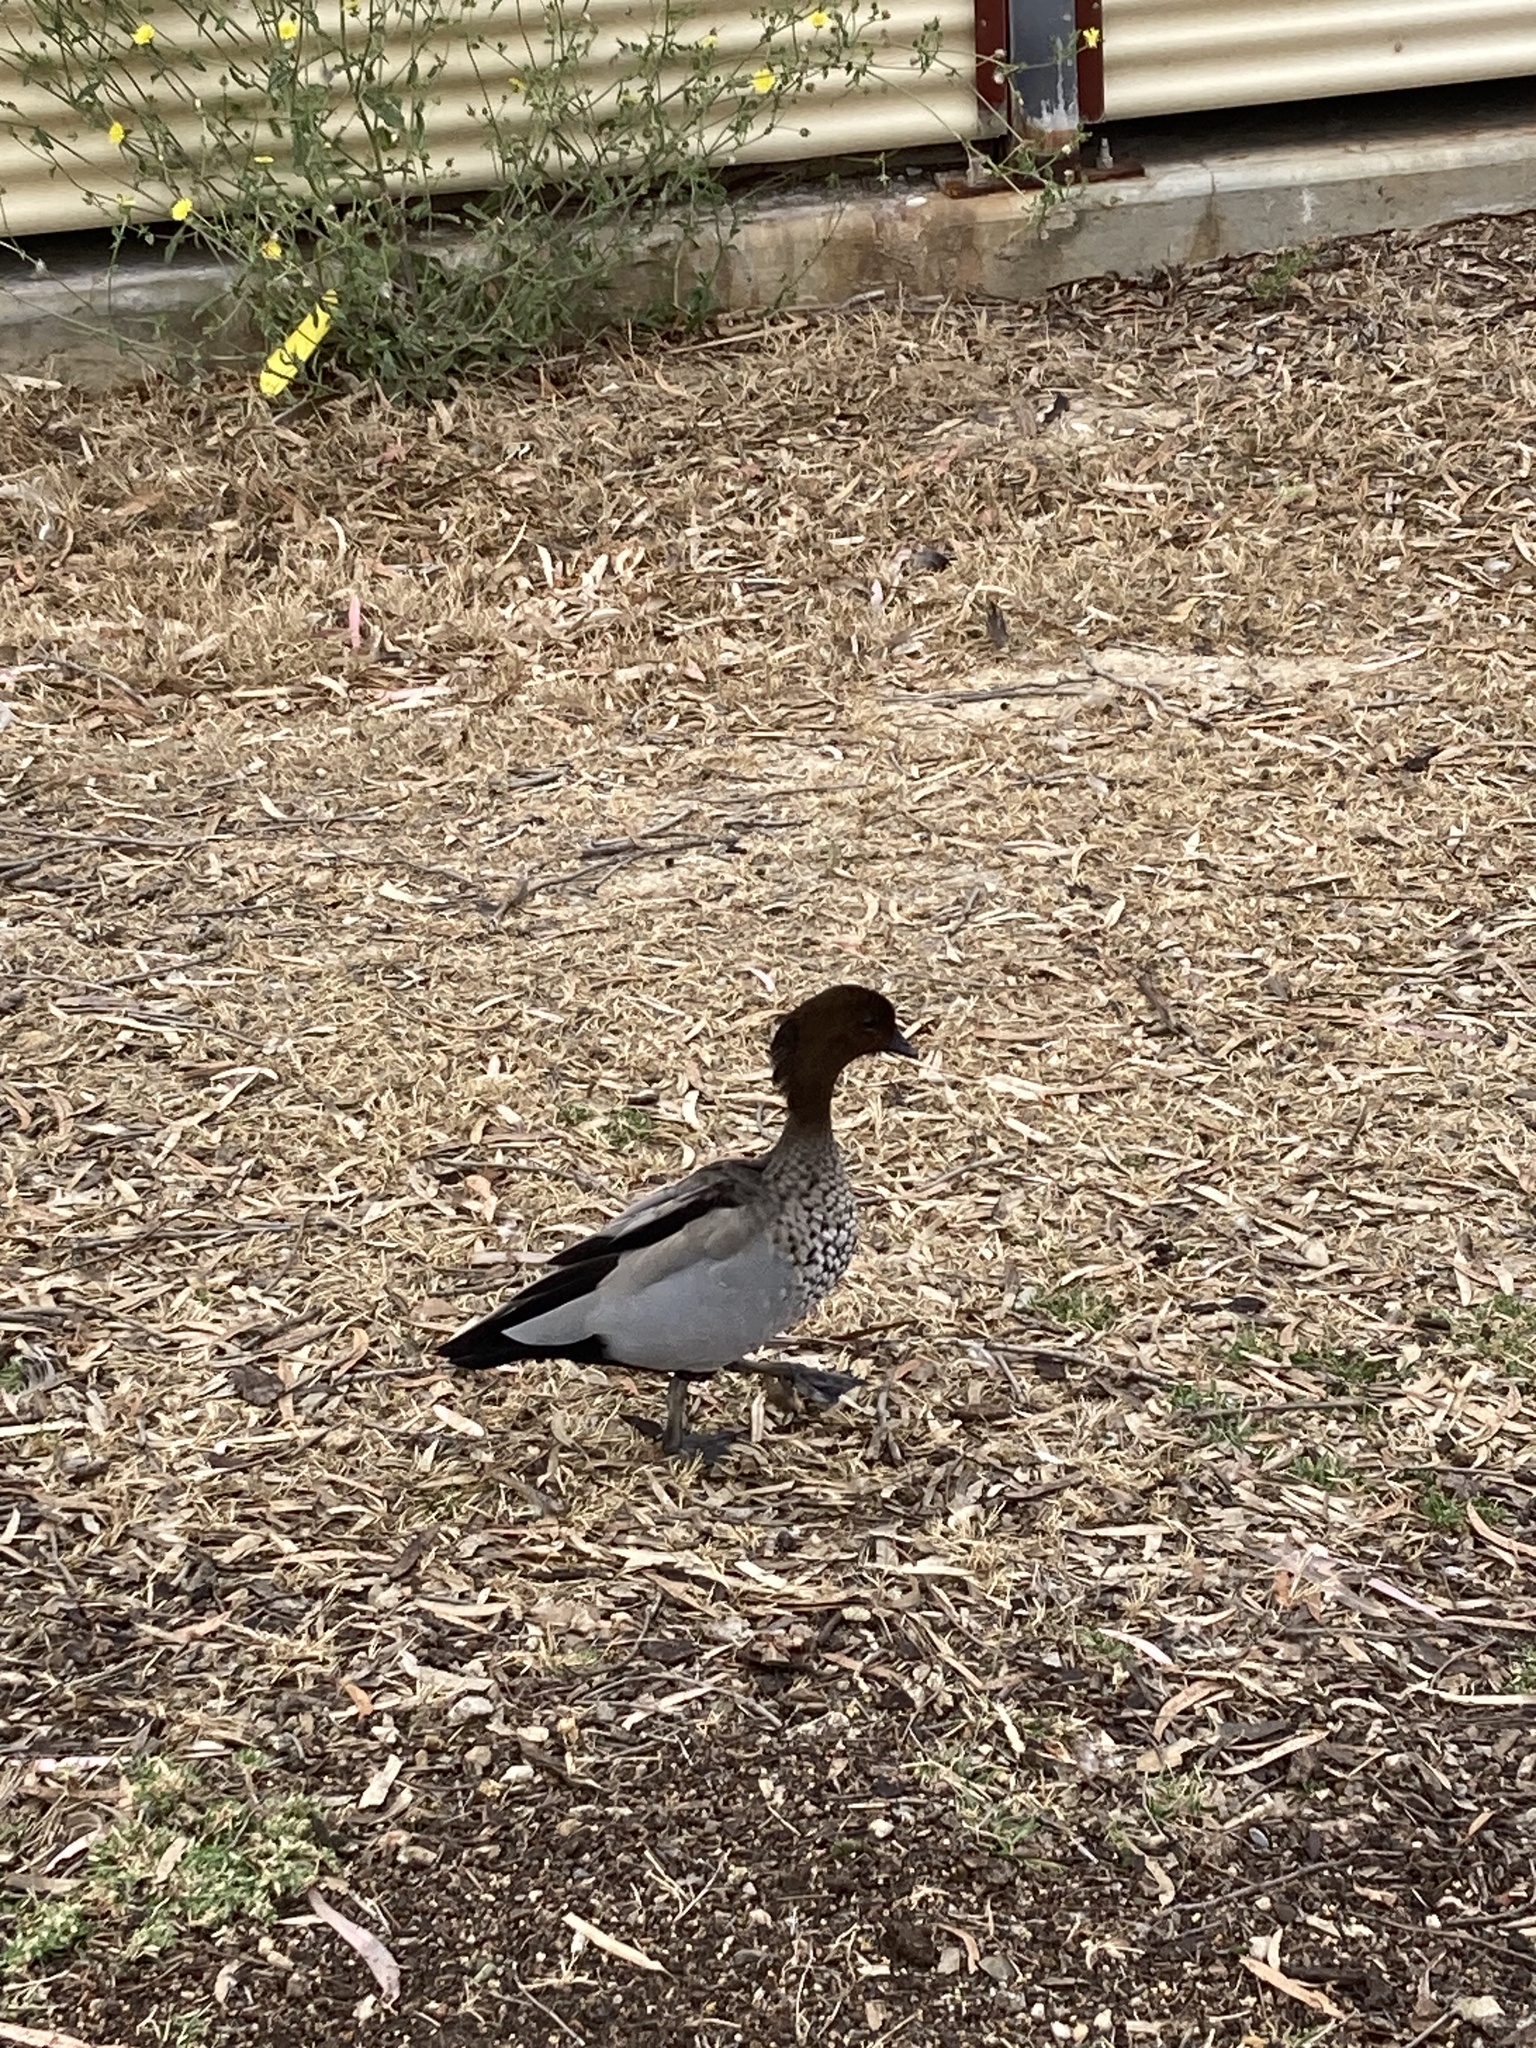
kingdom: Animalia
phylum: Chordata
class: Aves
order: Anseriformes
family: Anatidae
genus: Chenonetta
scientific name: Chenonetta jubata
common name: Maned duck
